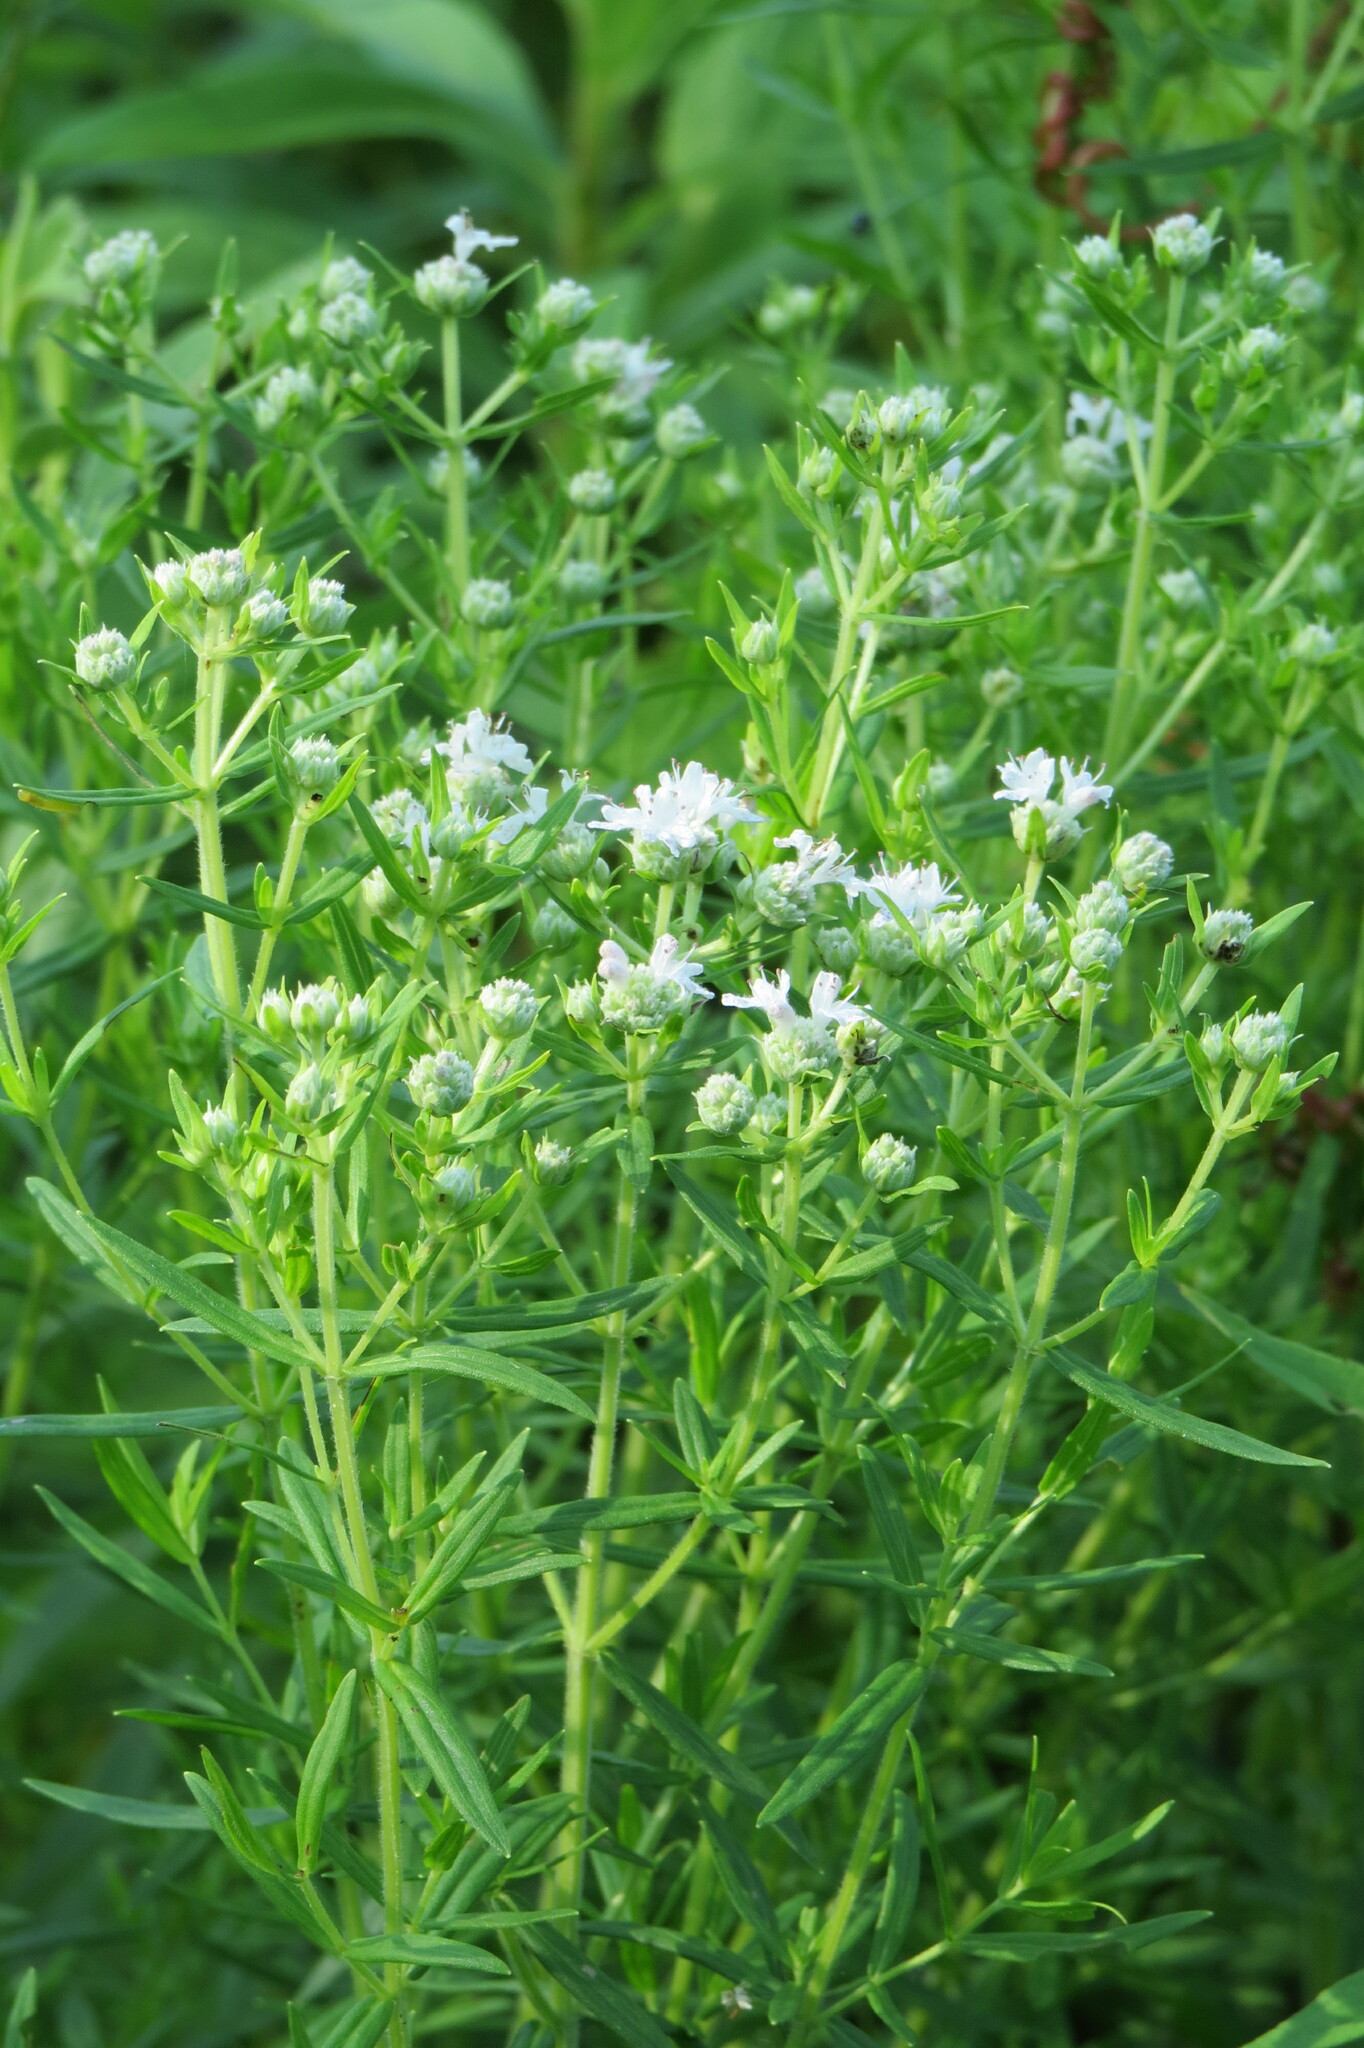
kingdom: Plantae
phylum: Tracheophyta
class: Magnoliopsida
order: Lamiales
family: Lamiaceae
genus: Pycnanthemum
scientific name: Pycnanthemum virginianum
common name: Virginia mountain-mint
